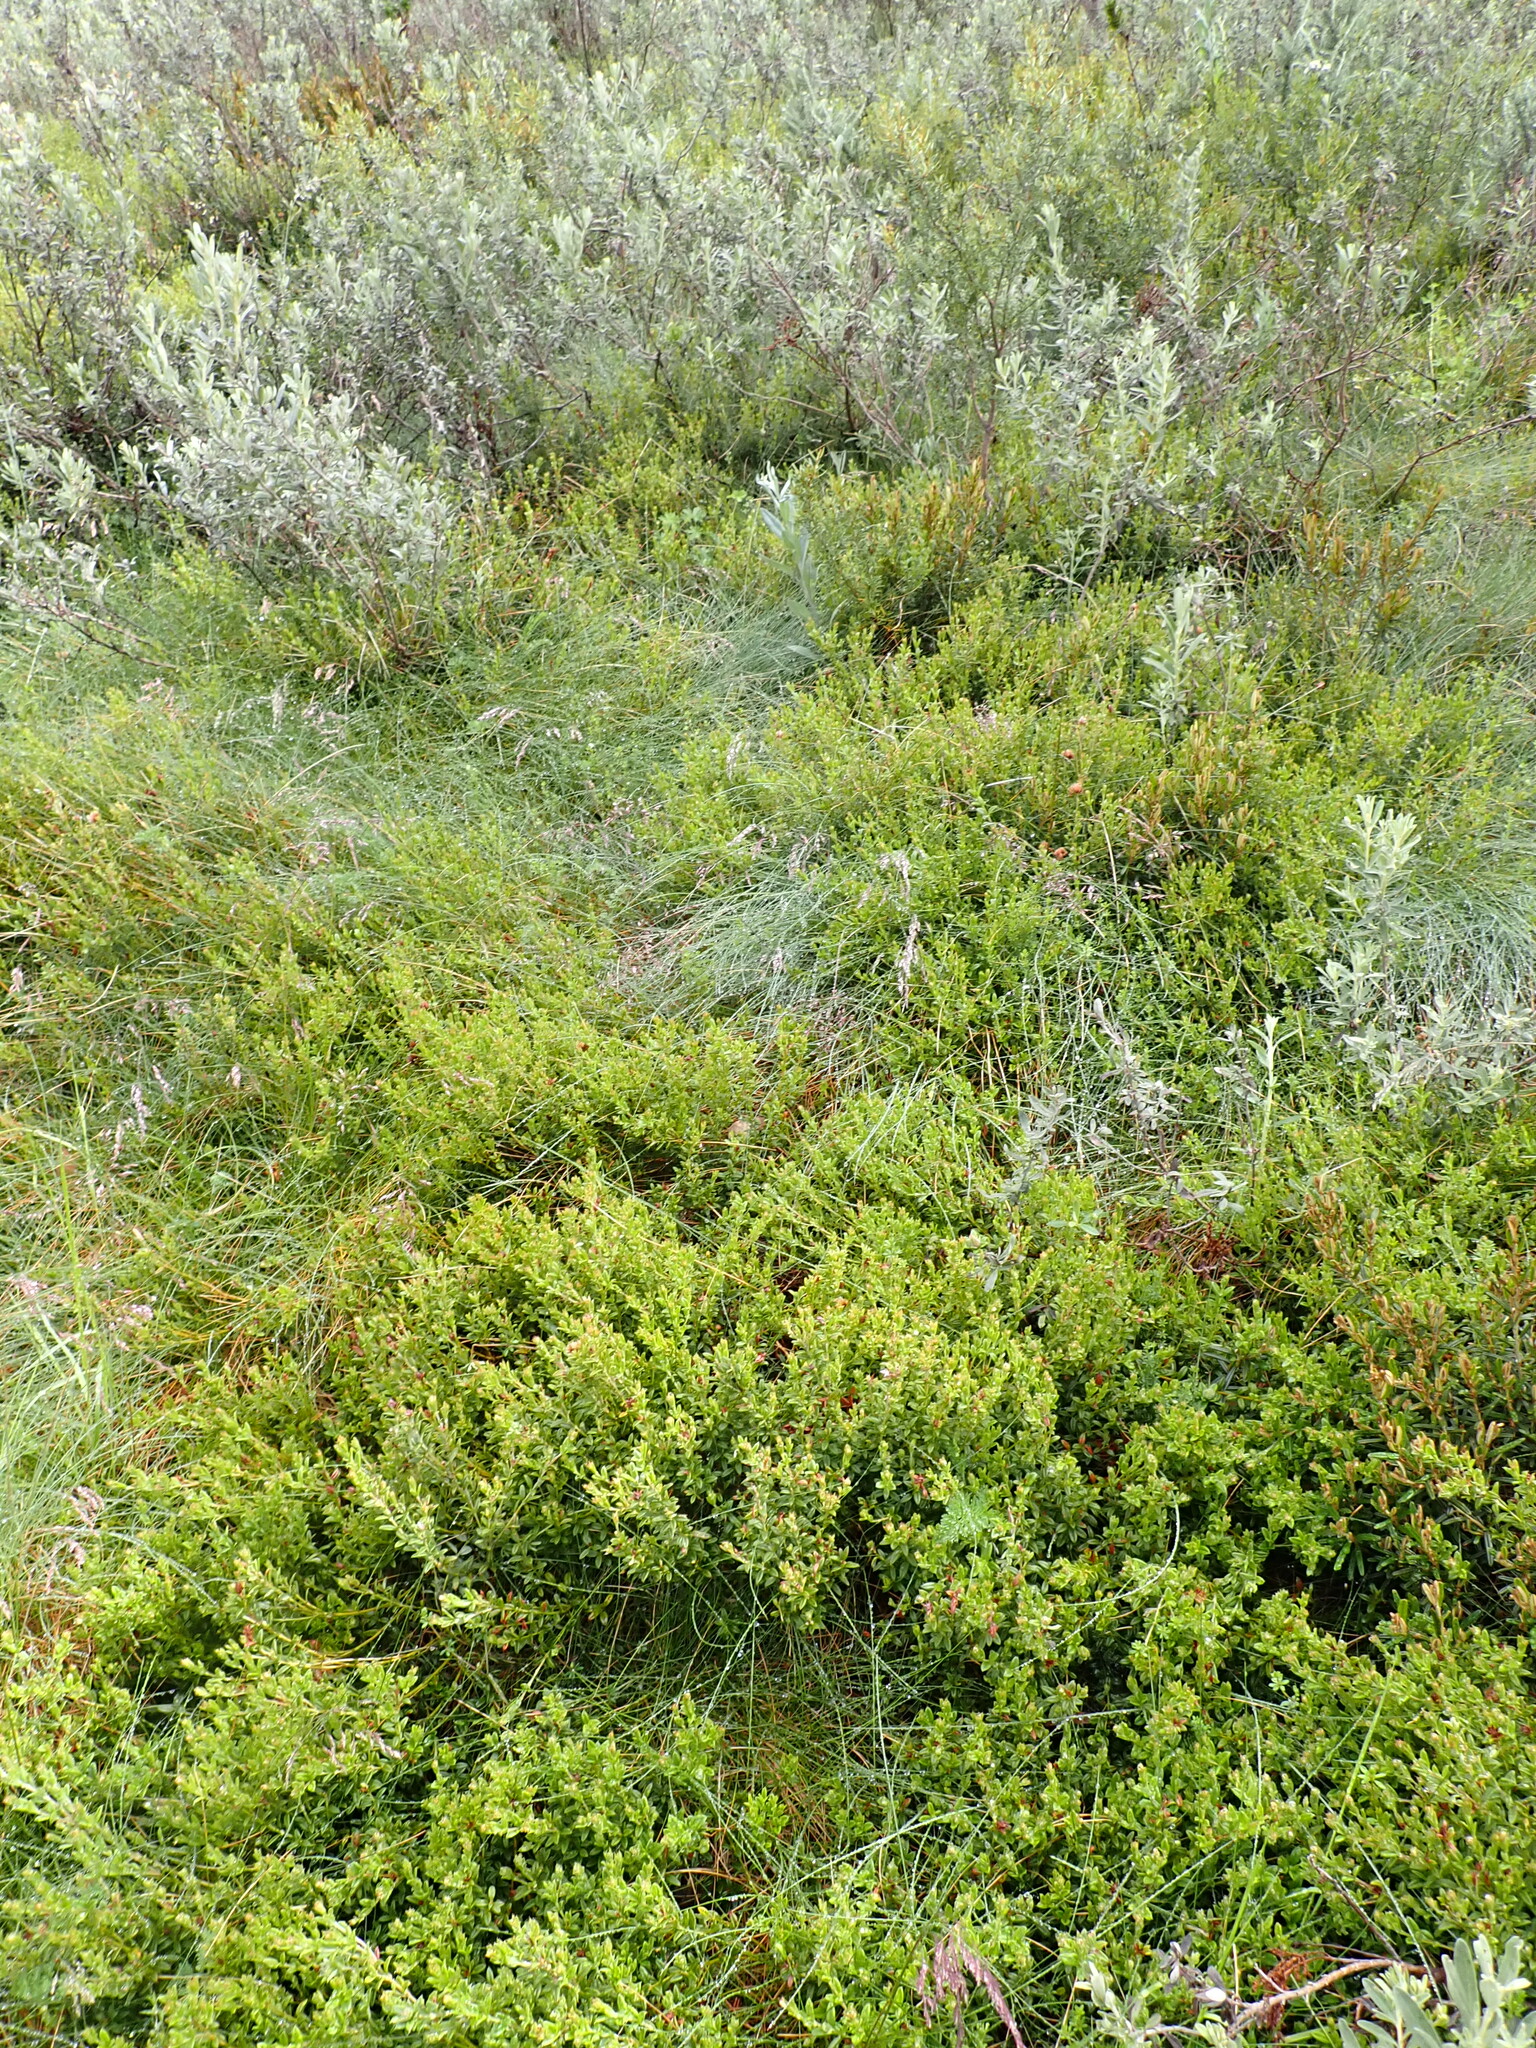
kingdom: Plantae
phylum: Tracheophyta
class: Magnoliopsida
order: Fabales
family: Fabaceae
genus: Oxylobium
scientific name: Oxylobium ellipticum
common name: Golden shaggy-pea
